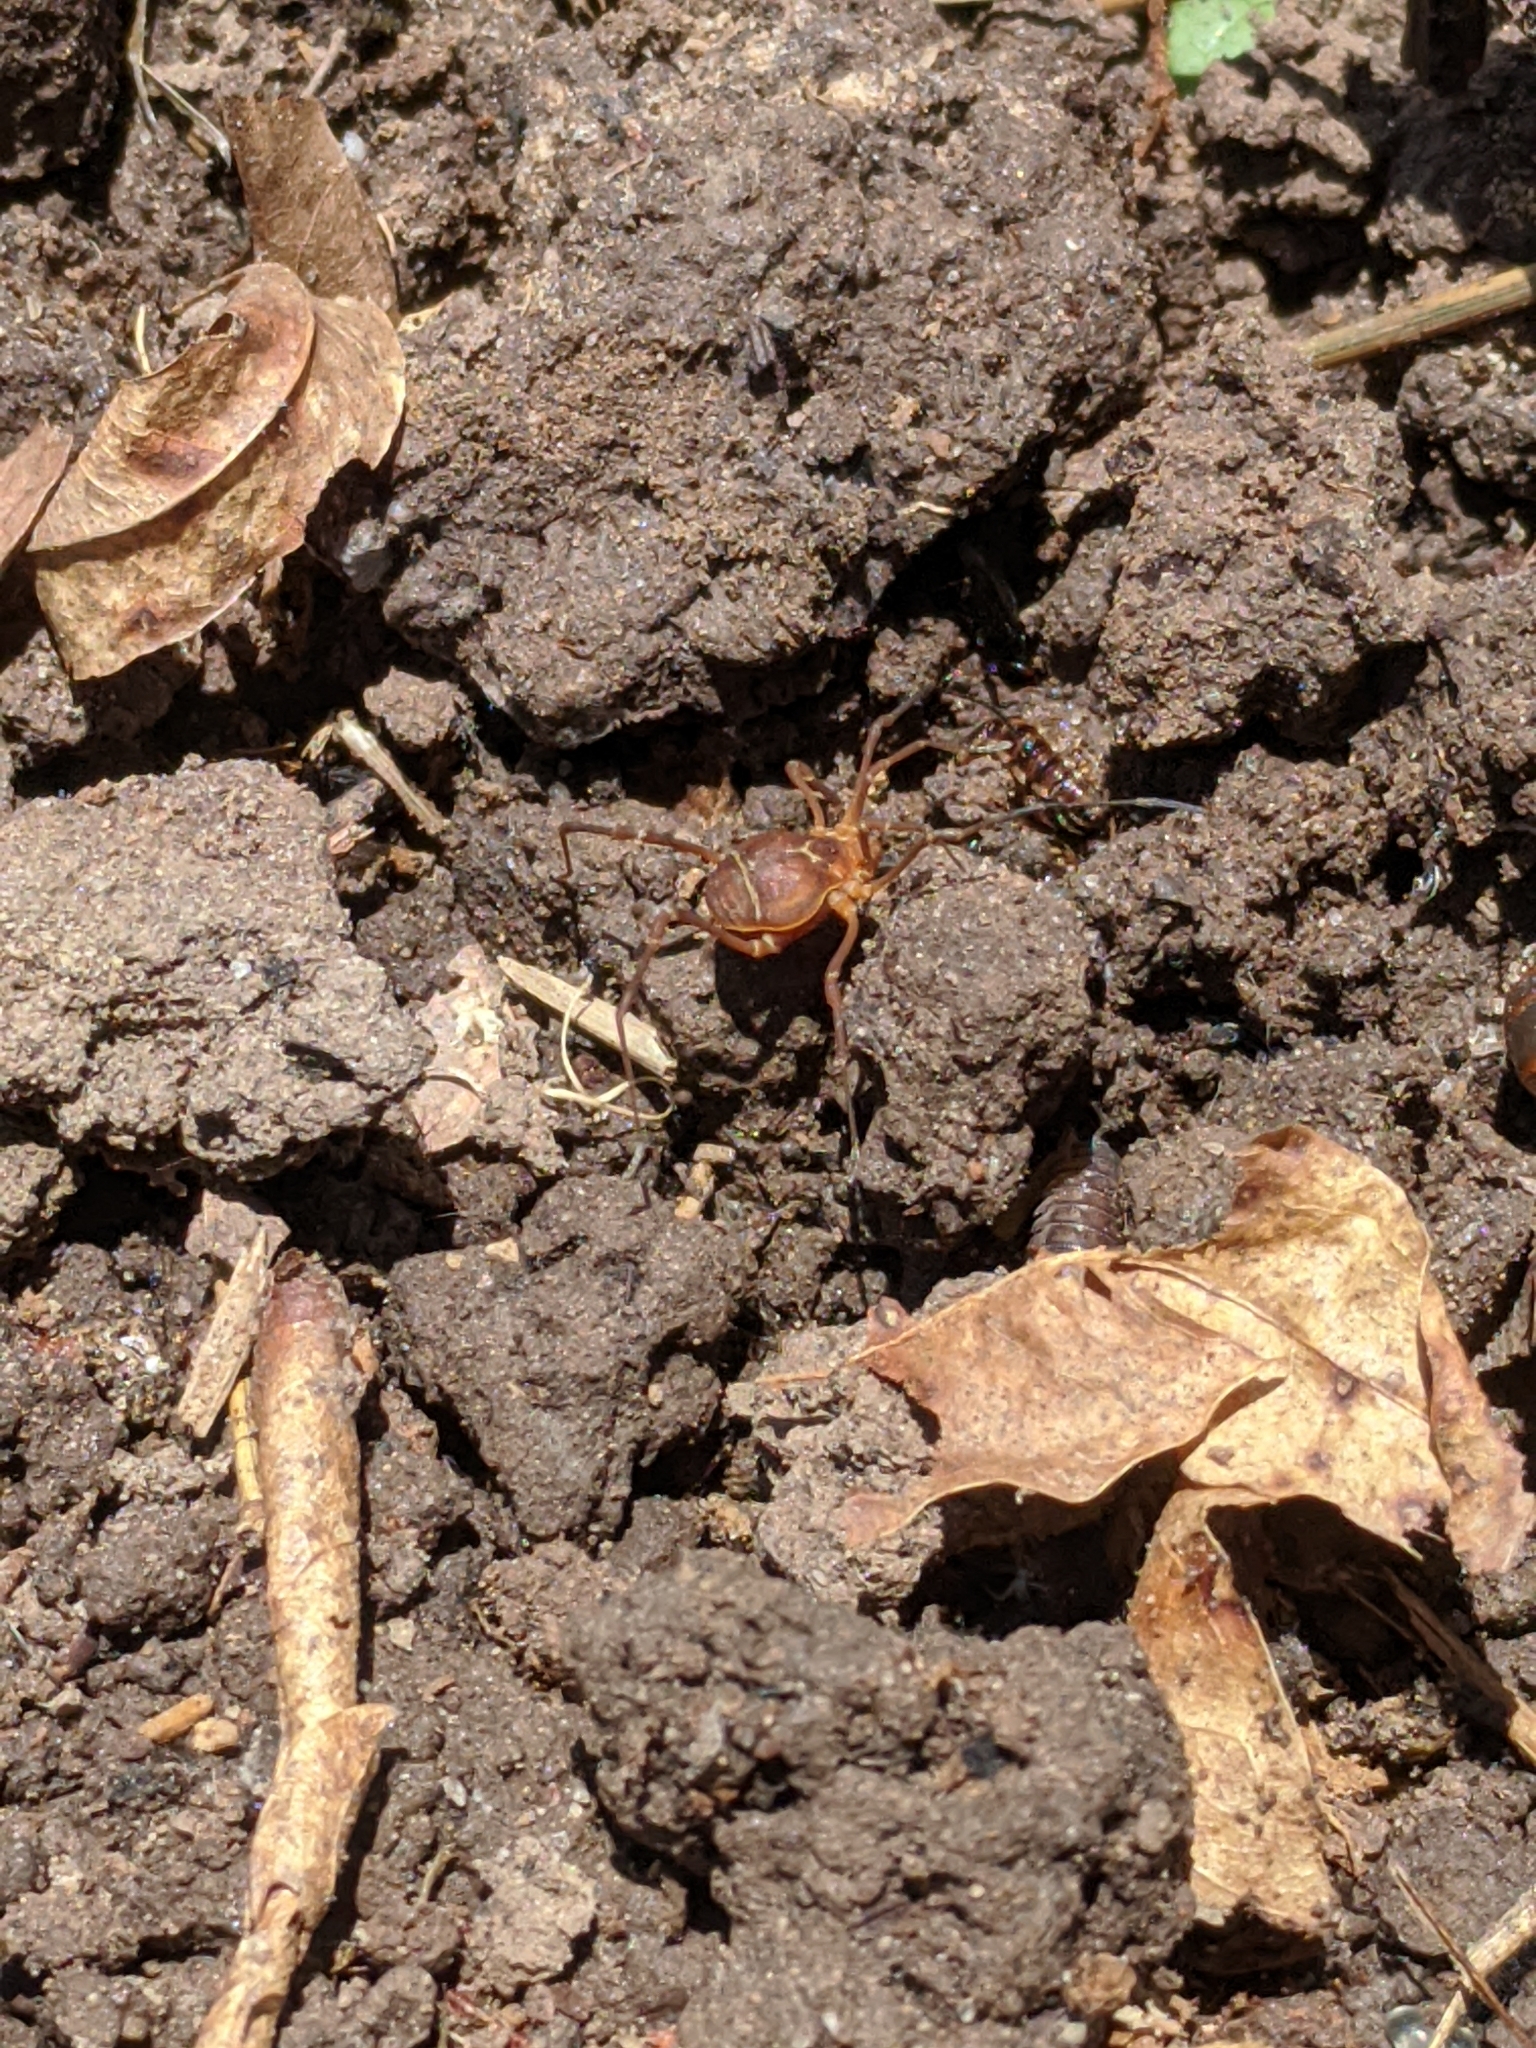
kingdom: Animalia
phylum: Arthropoda
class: Arachnida
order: Opiliones
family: Cosmetidae
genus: Libitioides
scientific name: Libitioides sayi
